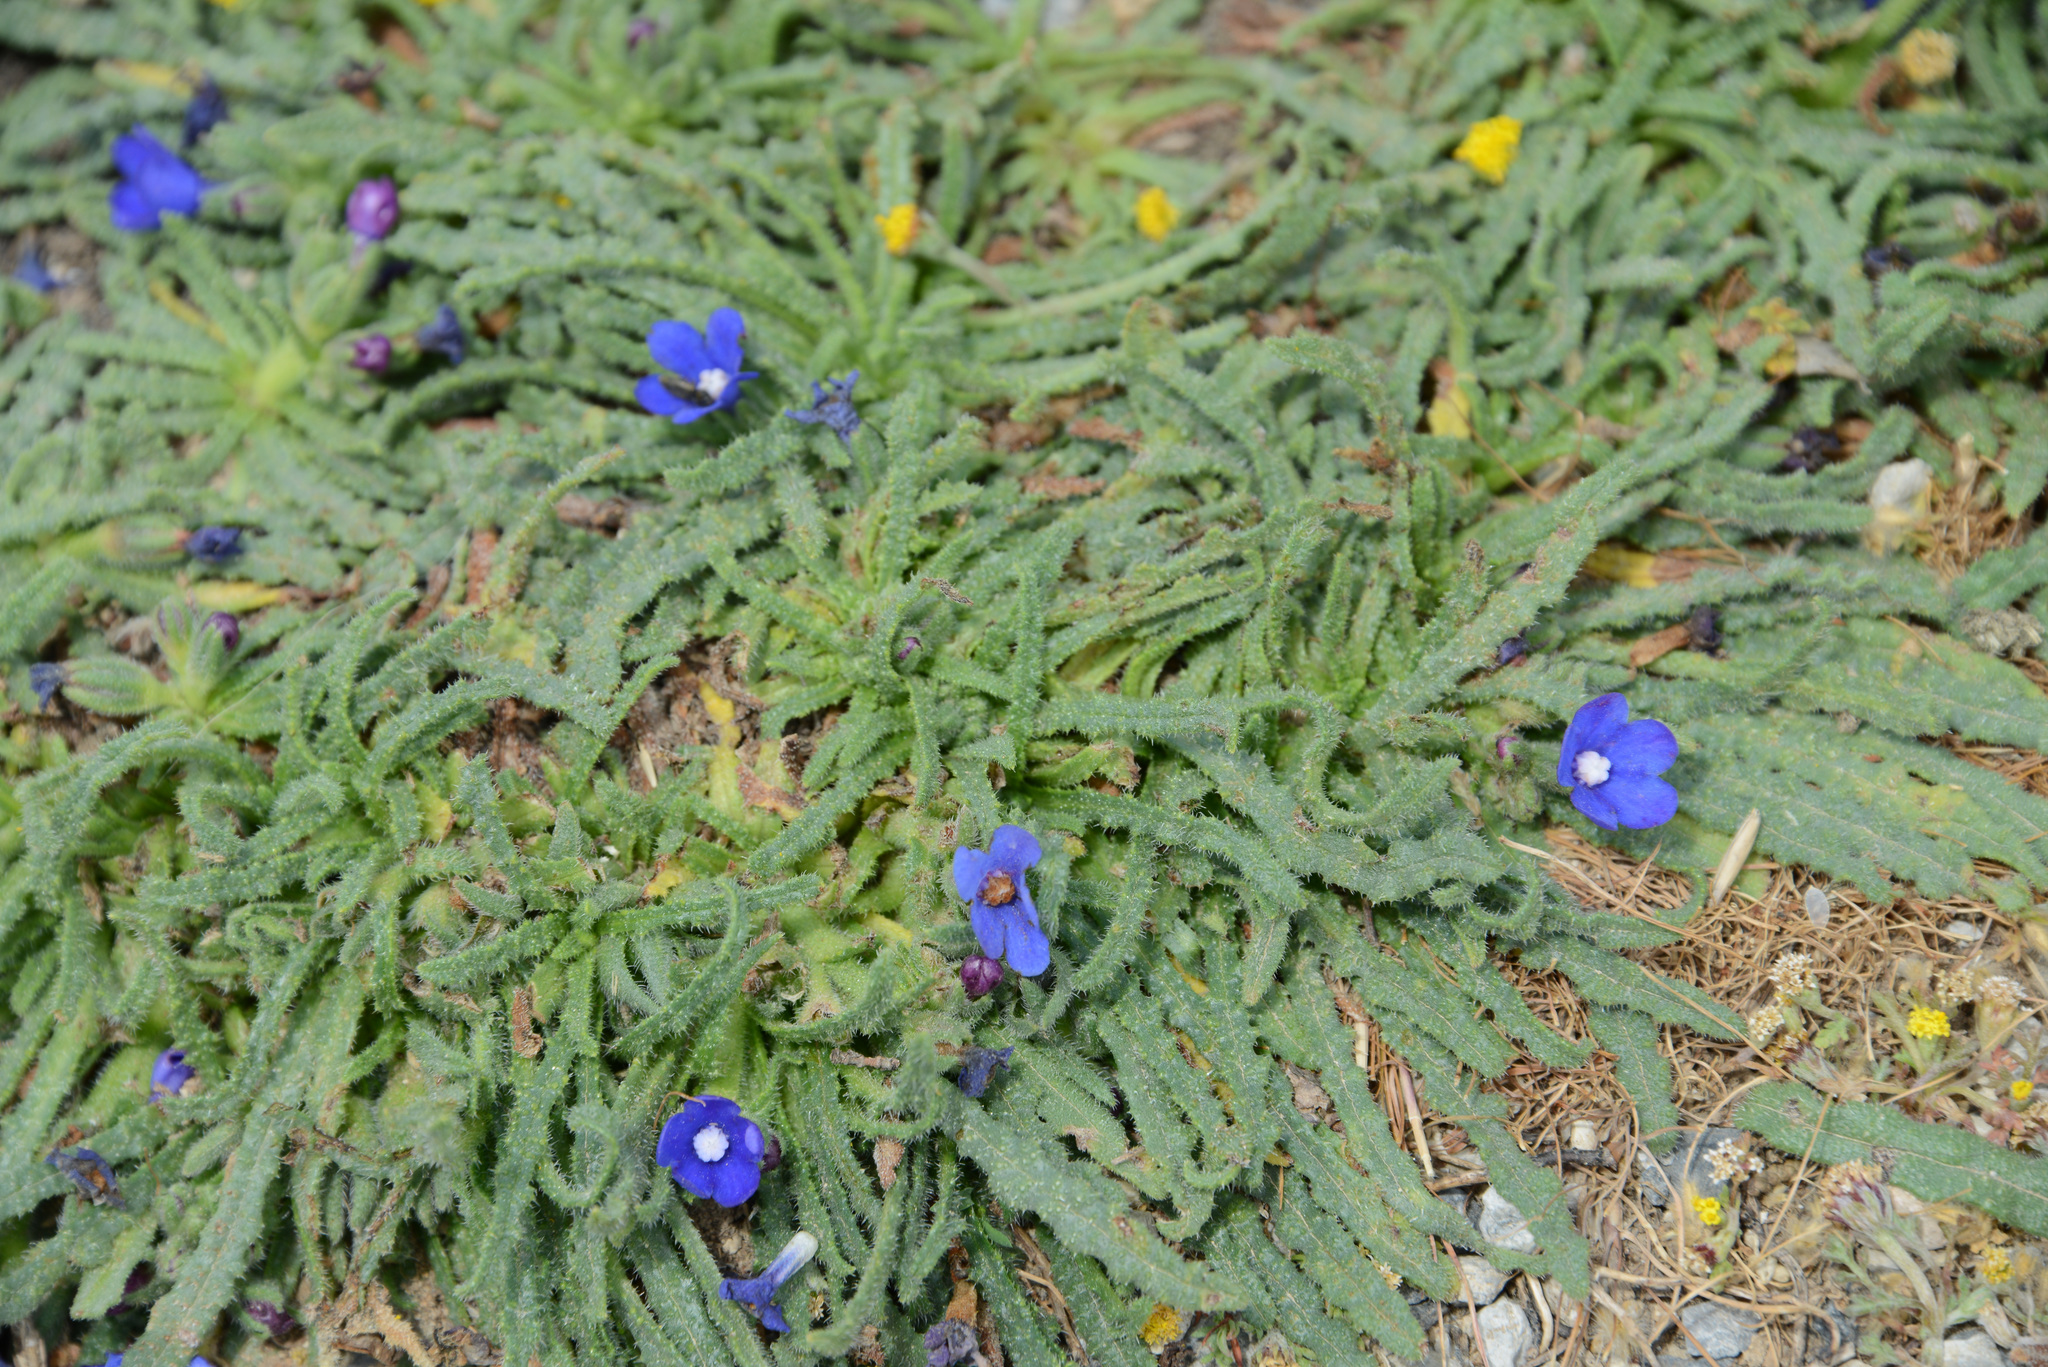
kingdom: Plantae
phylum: Tracheophyta
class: Magnoliopsida
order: Boraginales
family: Boraginaceae
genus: Anchusa
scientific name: Anchusa cespitosa
